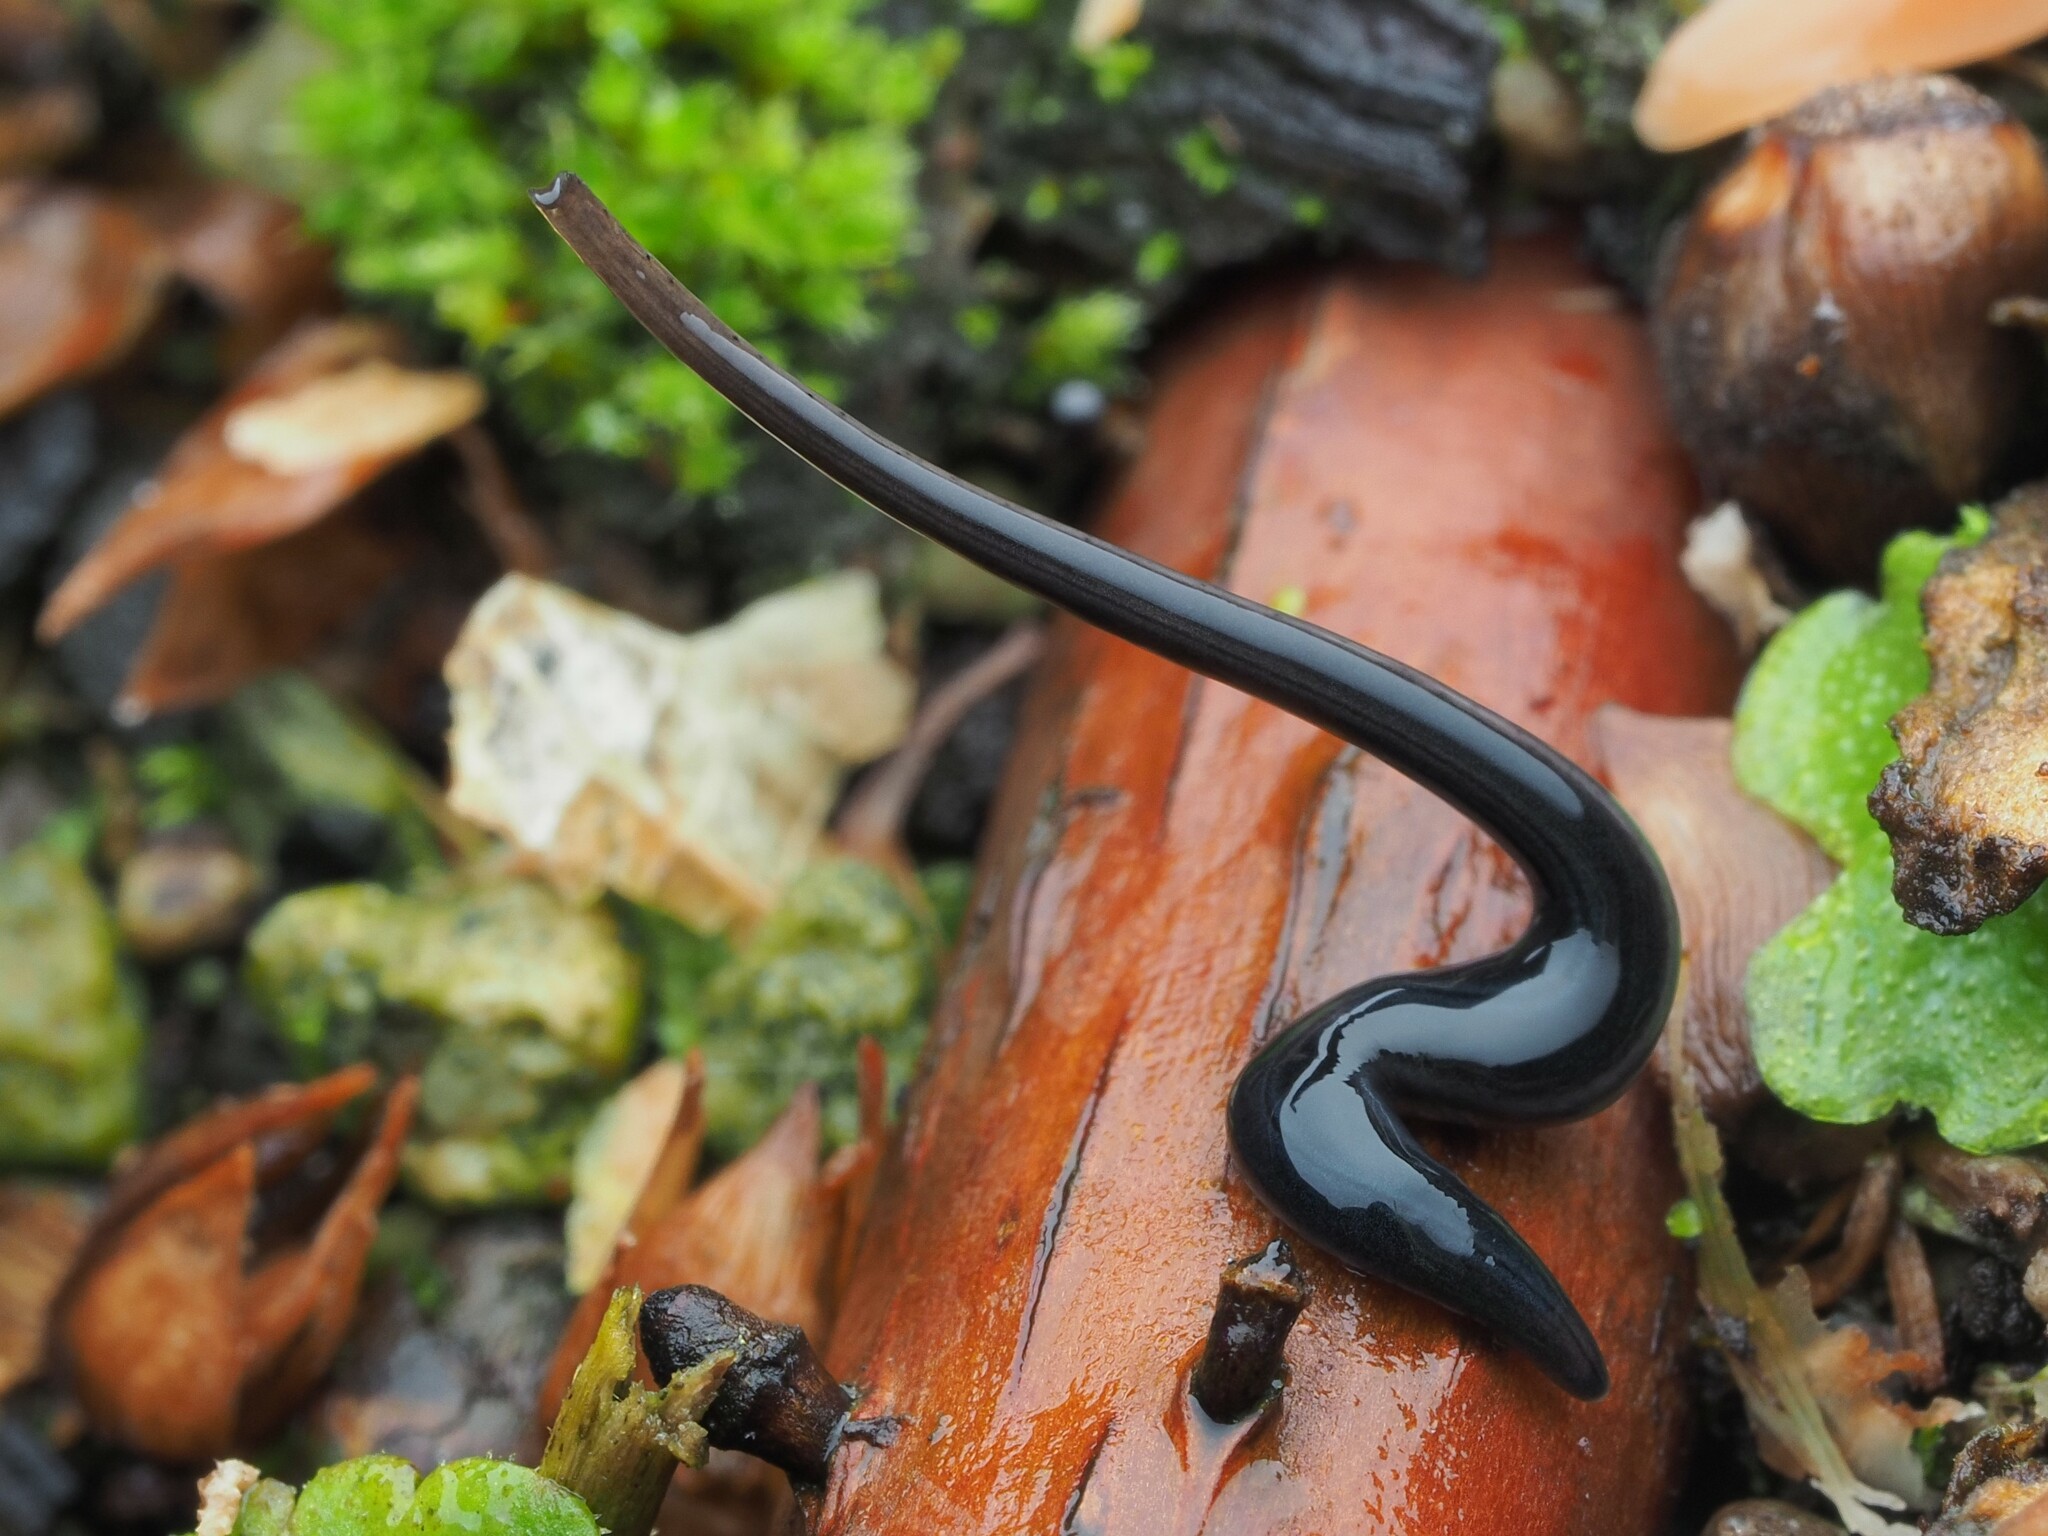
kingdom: Animalia
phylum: Platyhelminthes
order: Tricladida
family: Geoplanidae
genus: Parakontikia
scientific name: Parakontikia ventrolineata
